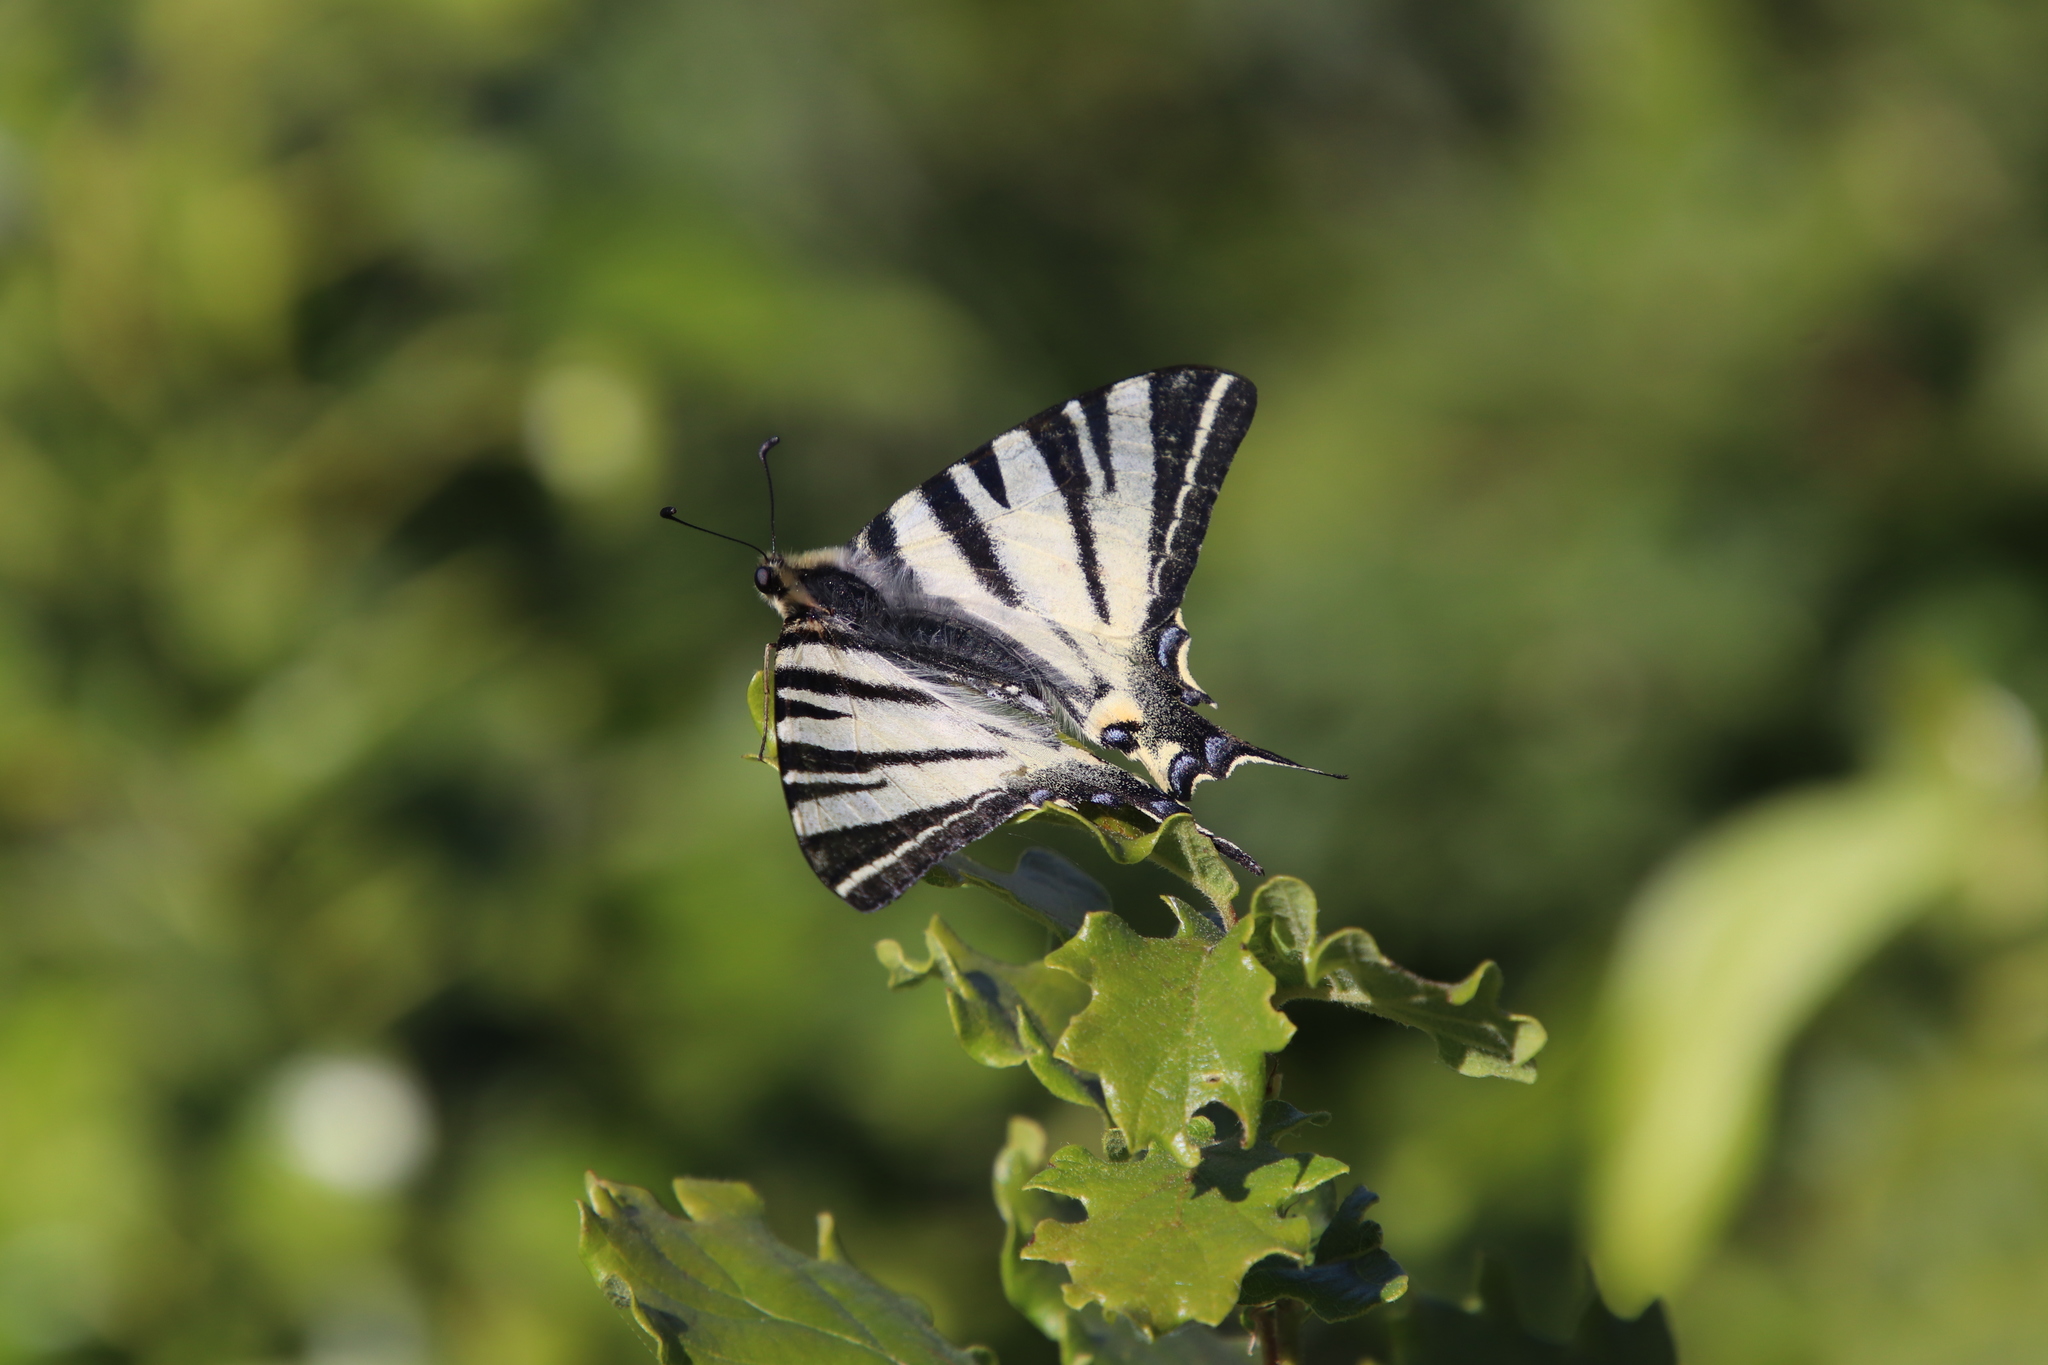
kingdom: Animalia
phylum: Arthropoda
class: Insecta
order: Lepidoptera
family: Papilionidae
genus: Iphiclides
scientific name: Iphiclides podalirius
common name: Scarce swallowtail
